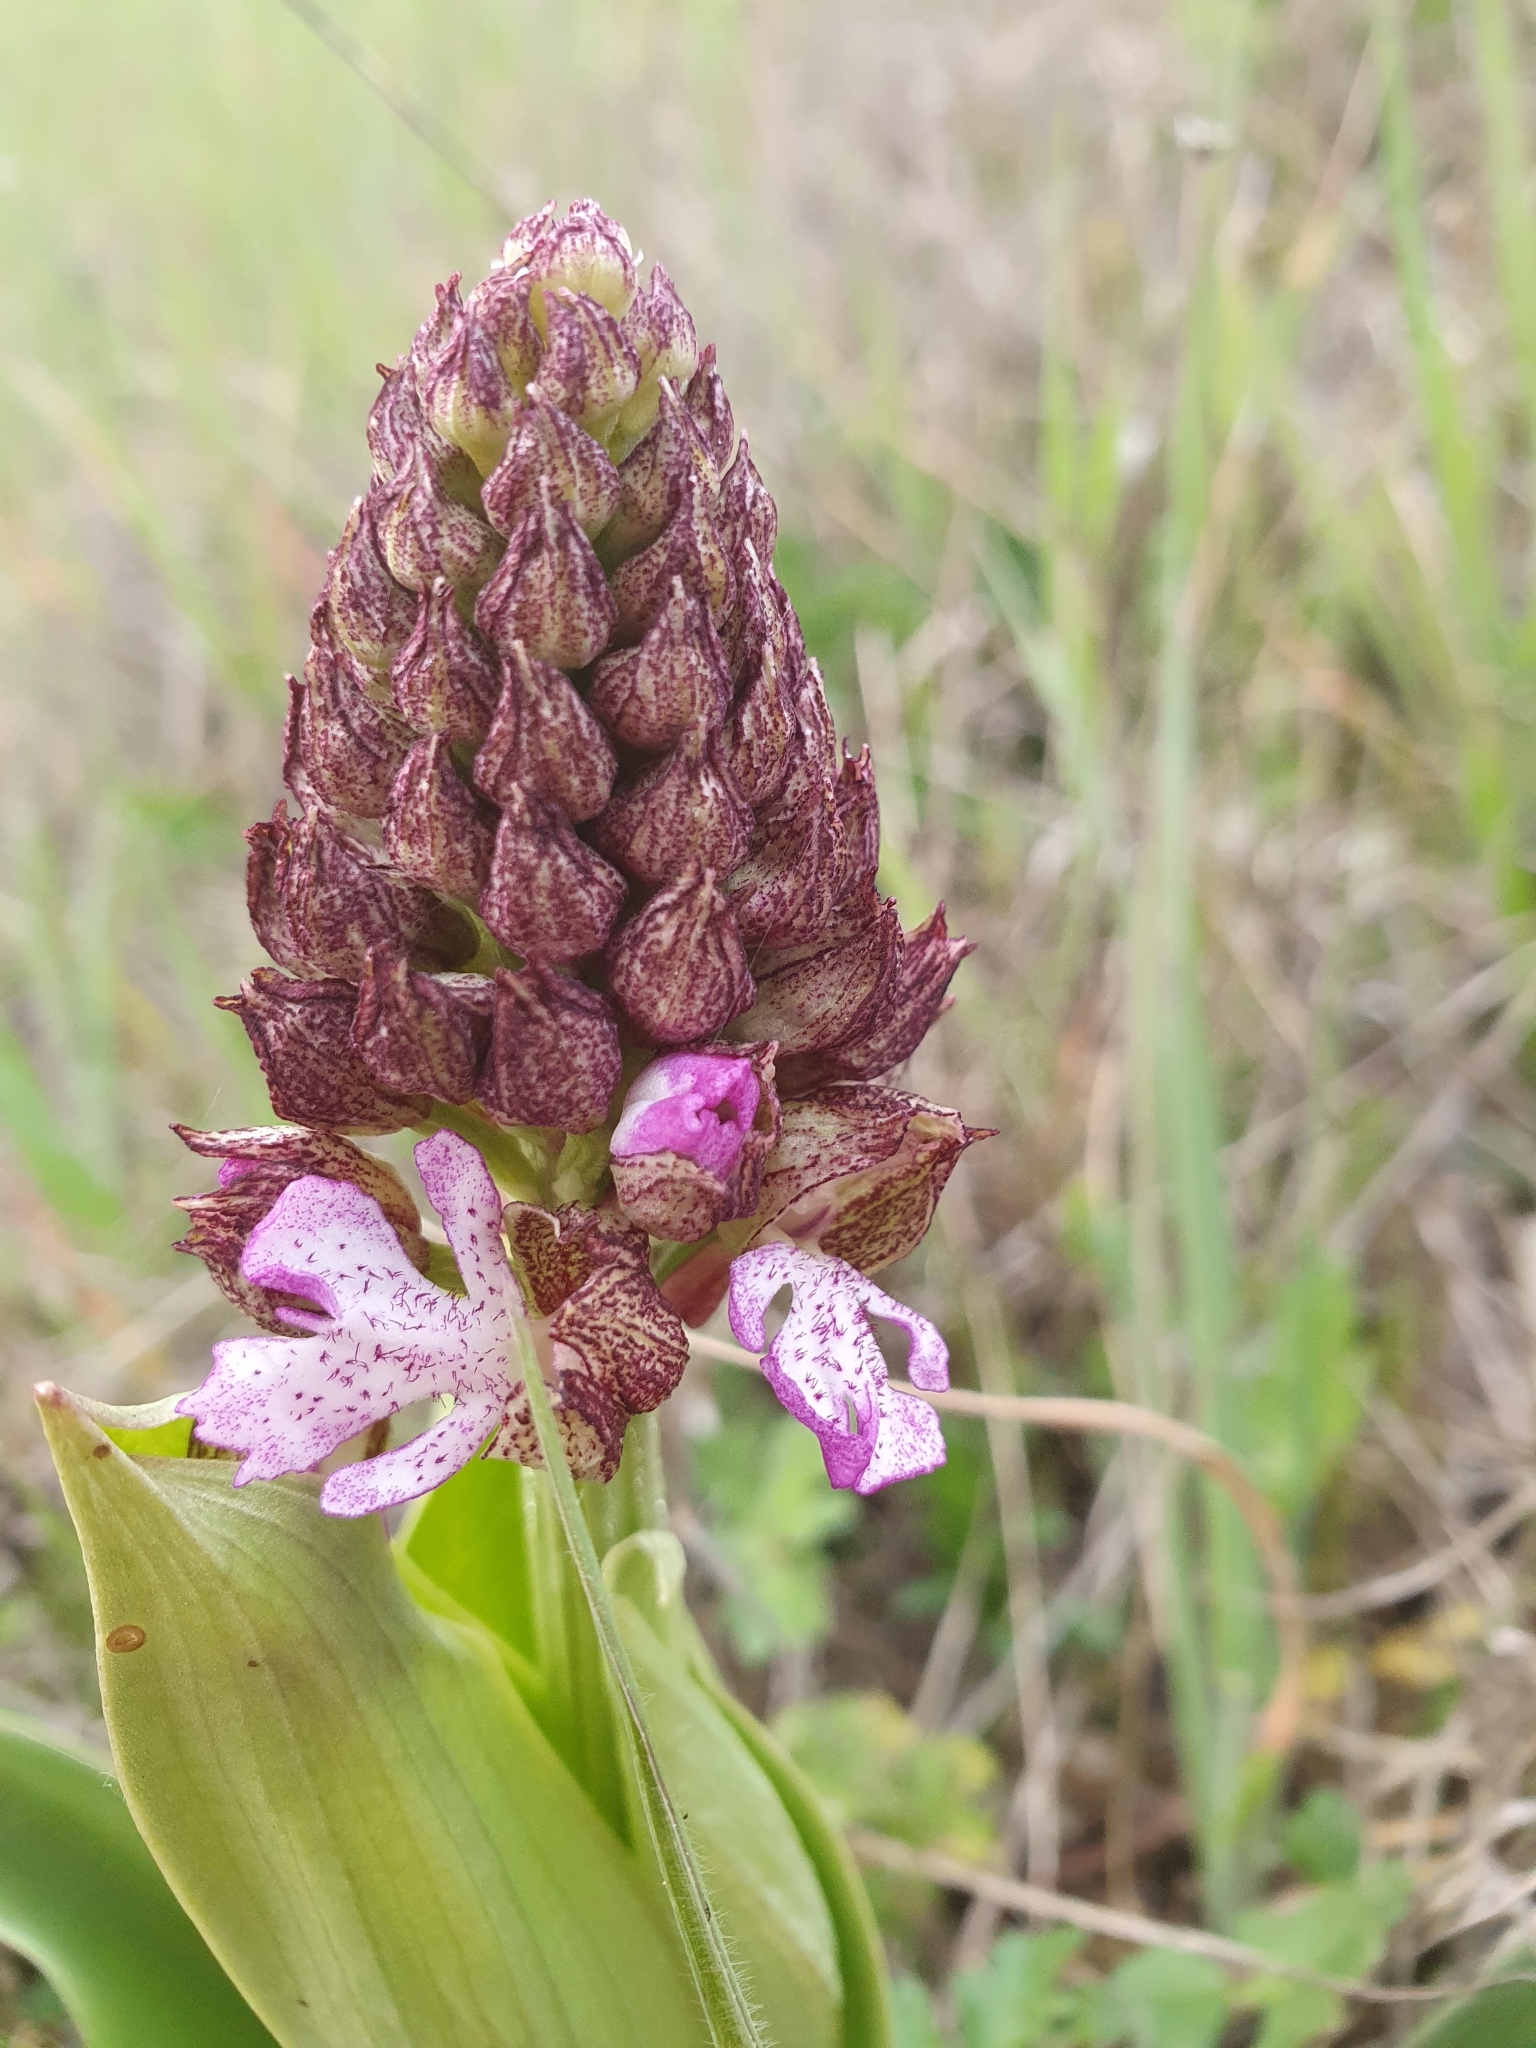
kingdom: Plantae
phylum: Tracheophyta
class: Liliopsida
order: Asparagales
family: Orchidaceae
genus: Orchis
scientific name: Orchis purpurea
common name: Lady orchid
